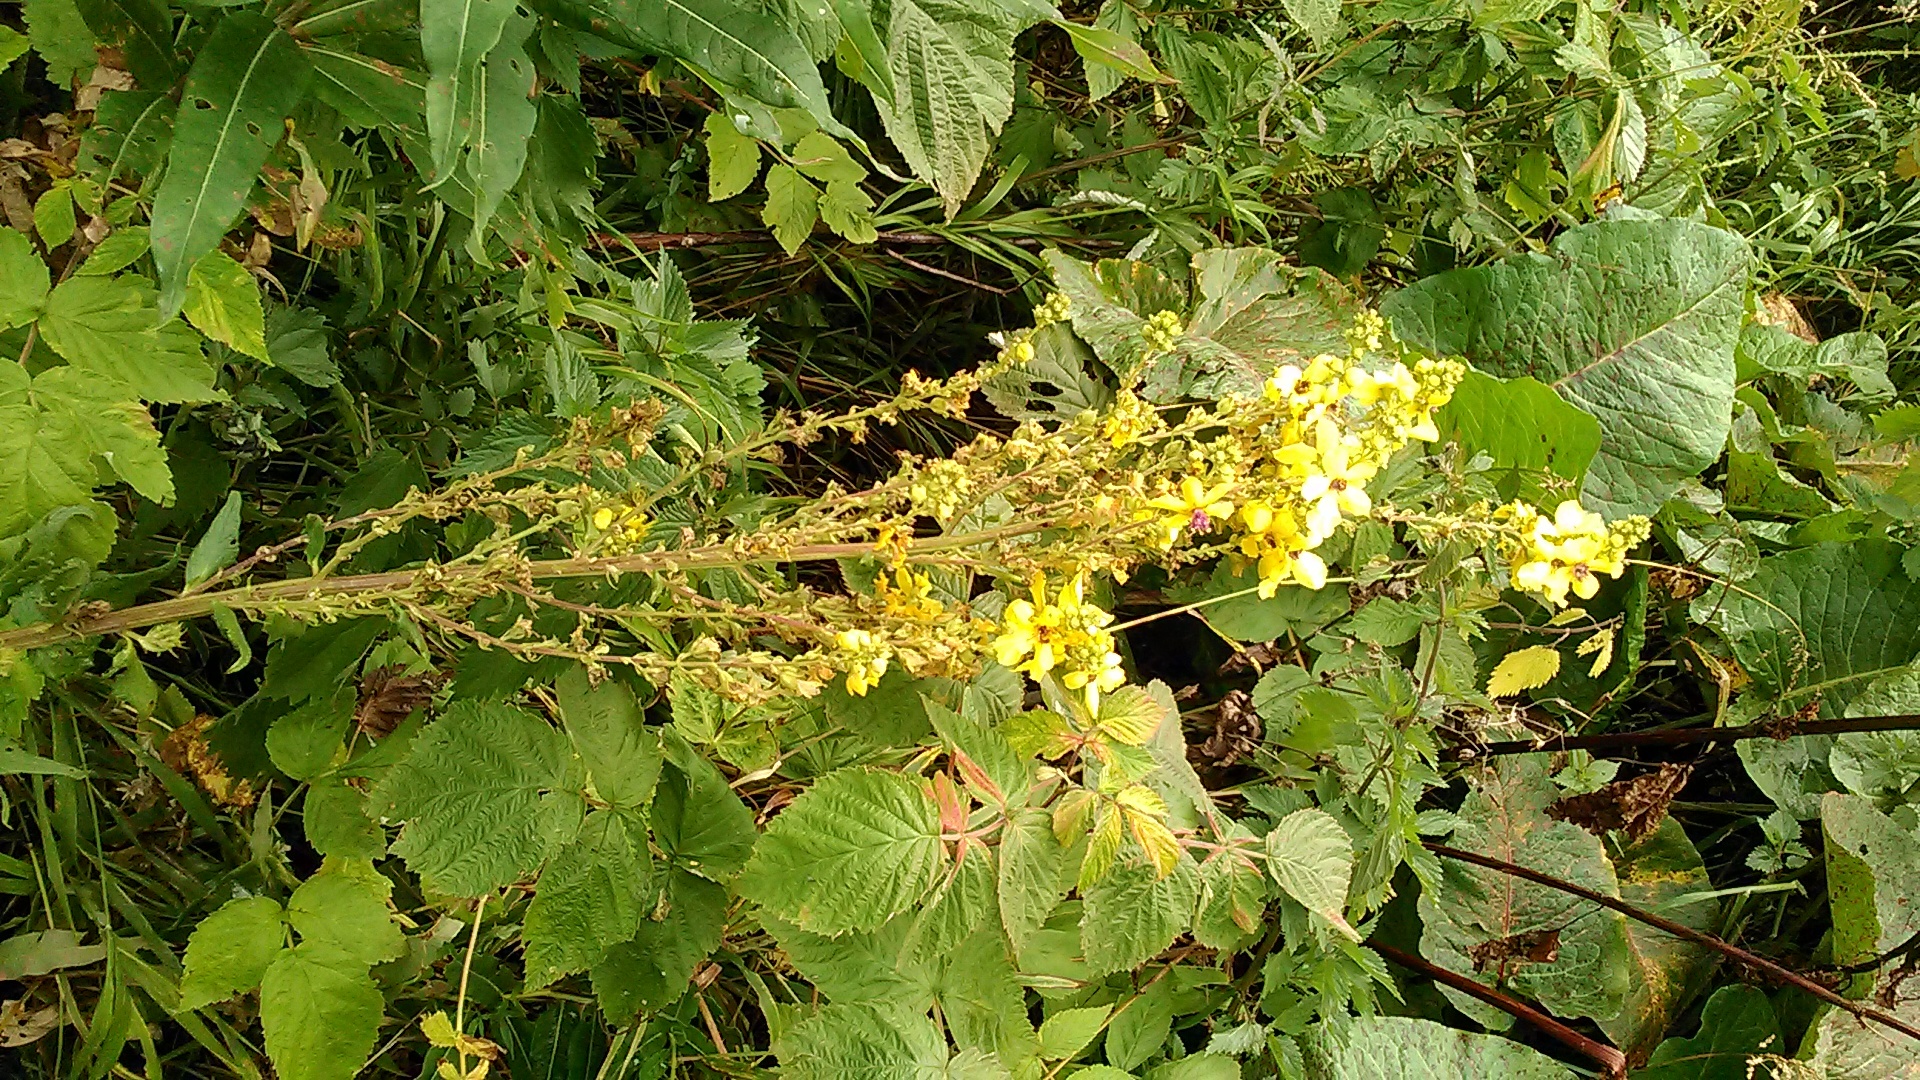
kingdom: Plantae
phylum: Tracheophyta
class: Magnoliopsida
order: Lamiales
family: Scrophulariaceae
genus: Verbascum
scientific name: Verbascum pyramidatum
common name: Caucasian mullein
